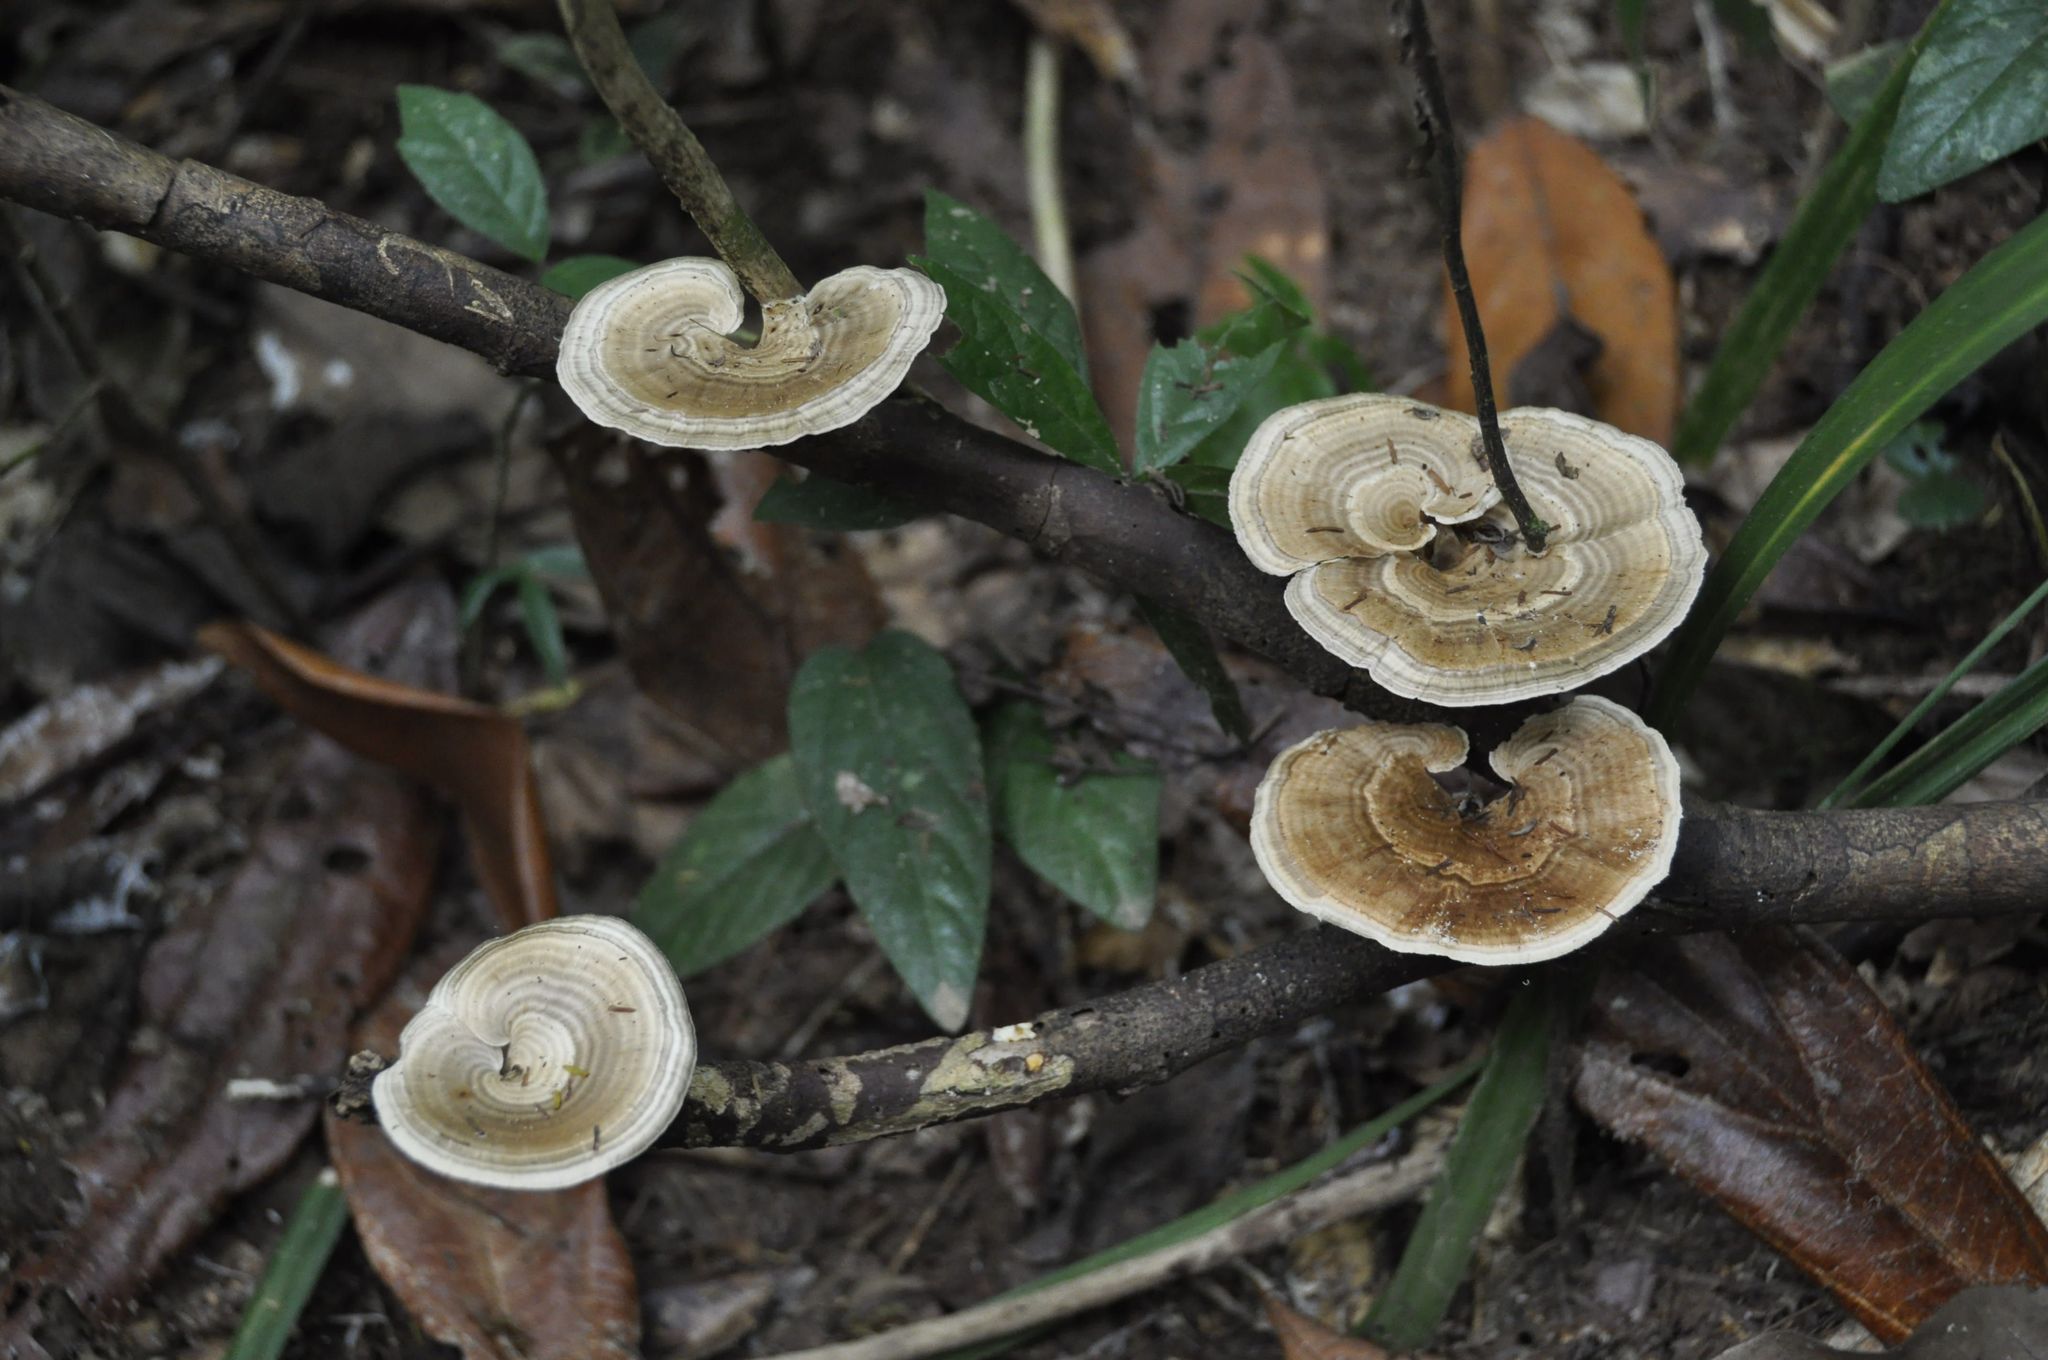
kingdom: Fungi
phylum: Basidiomycota
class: Agaricomycetes
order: Polyporales
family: Polyporaceae
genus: Trametes
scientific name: Trametes vernicipes
